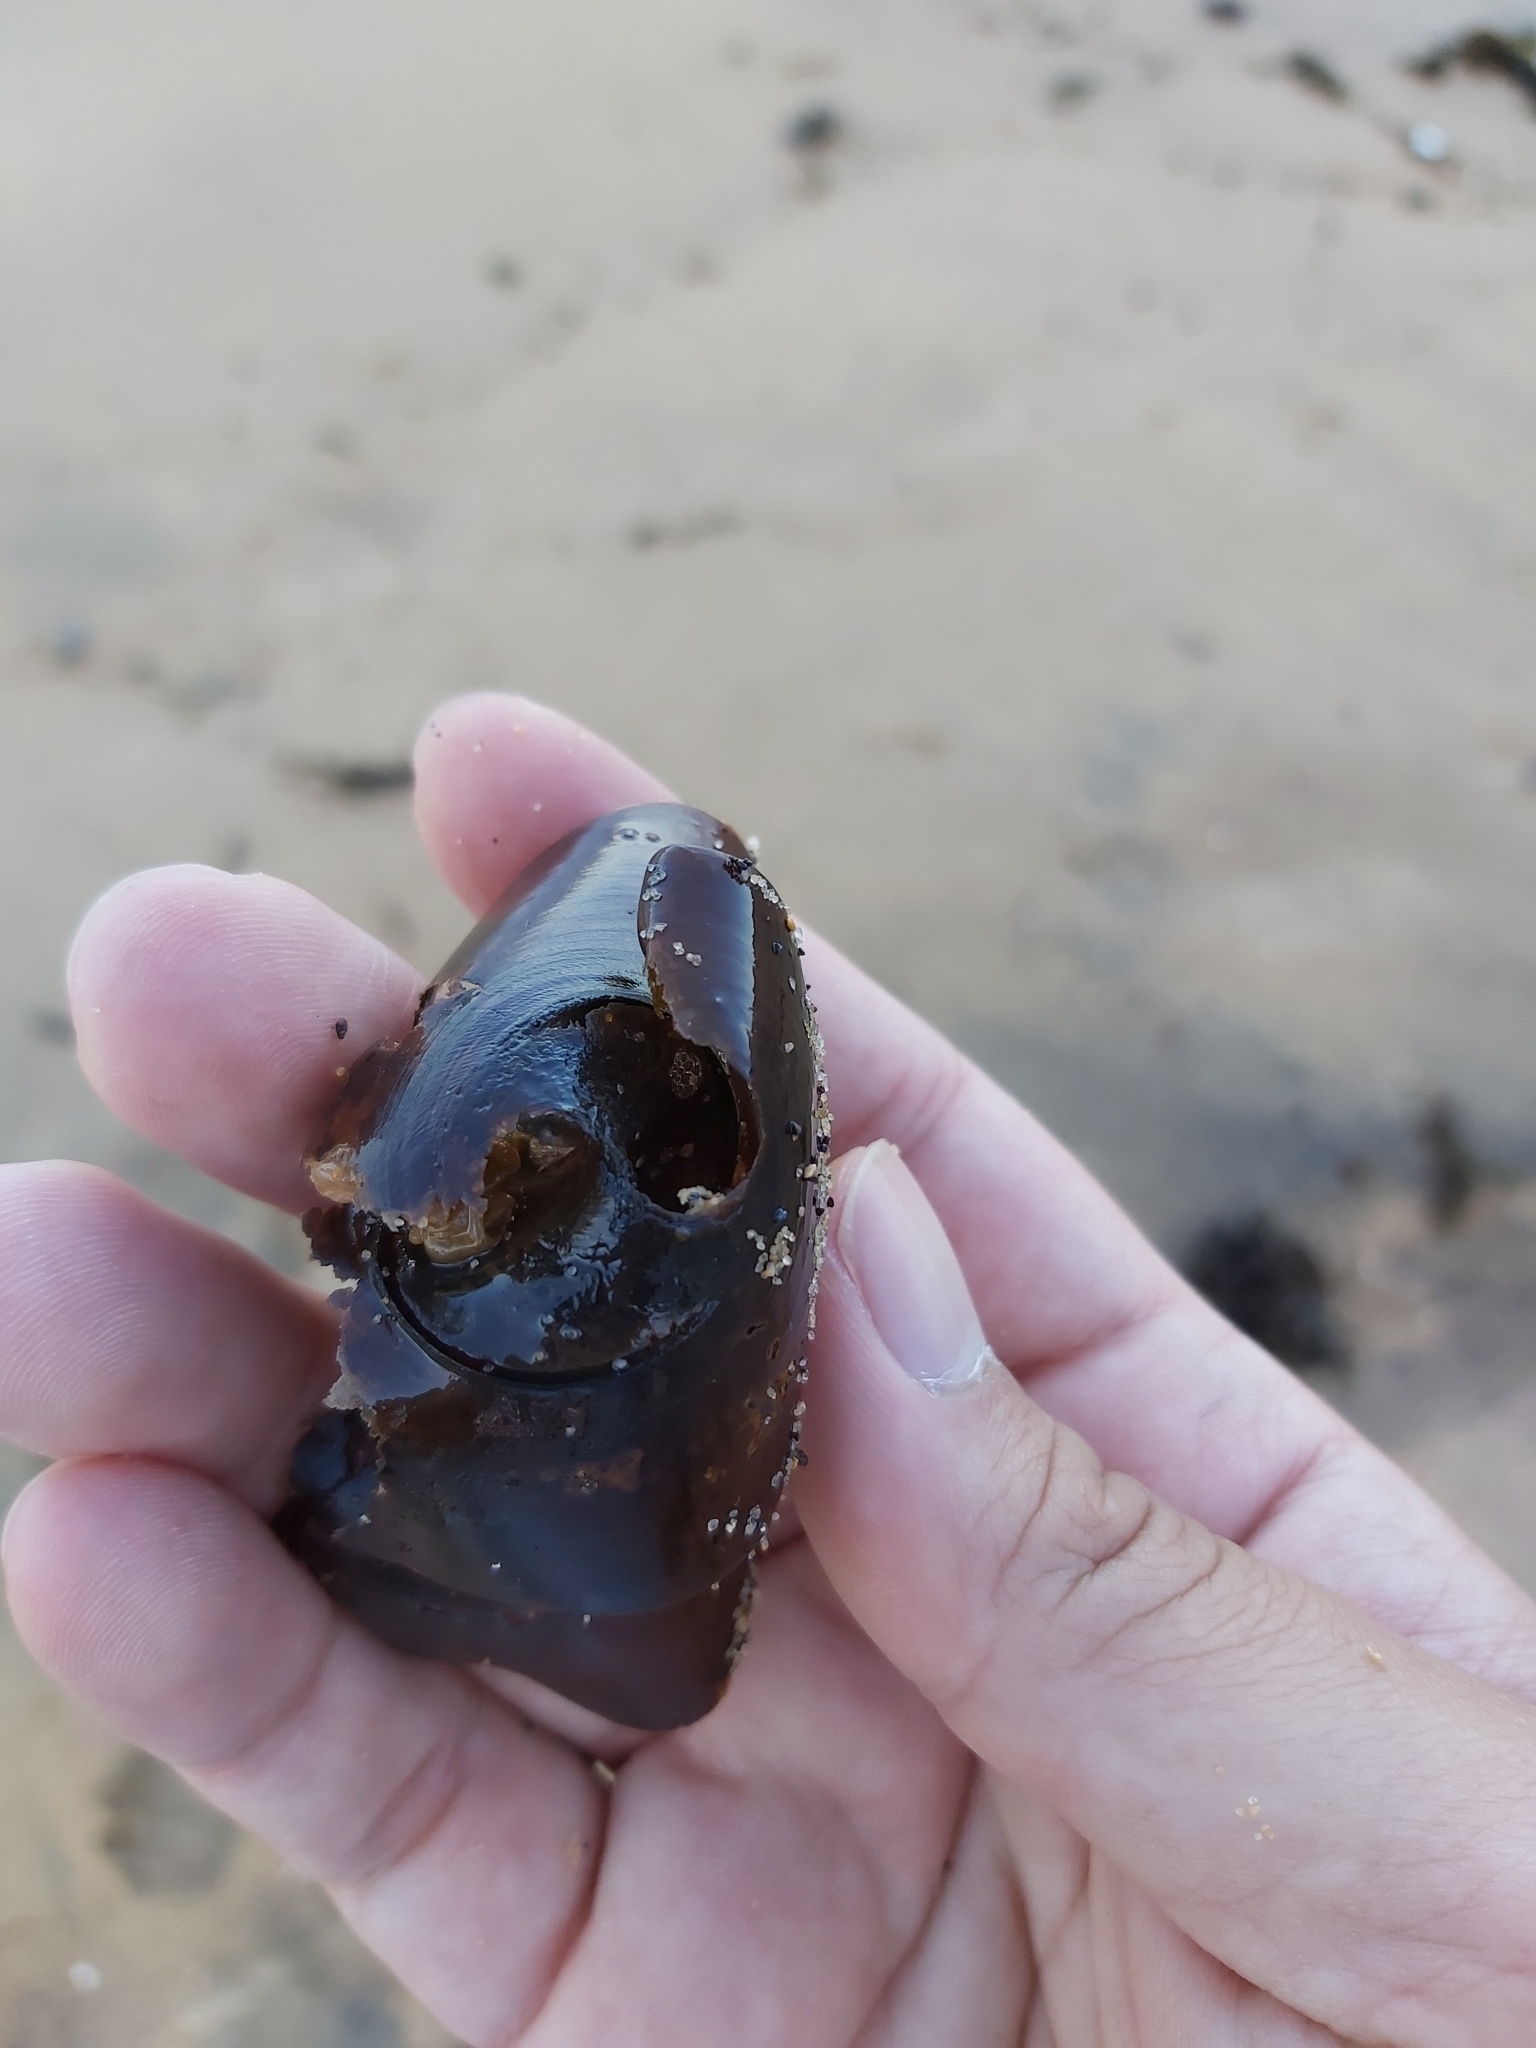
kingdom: Animalia
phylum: Chordata
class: Elasmobranchii
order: Heterodontiformes
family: Heterodontidae
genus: Heterodontus
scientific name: Heterodontus portusjacksoni
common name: Port jackson shark
